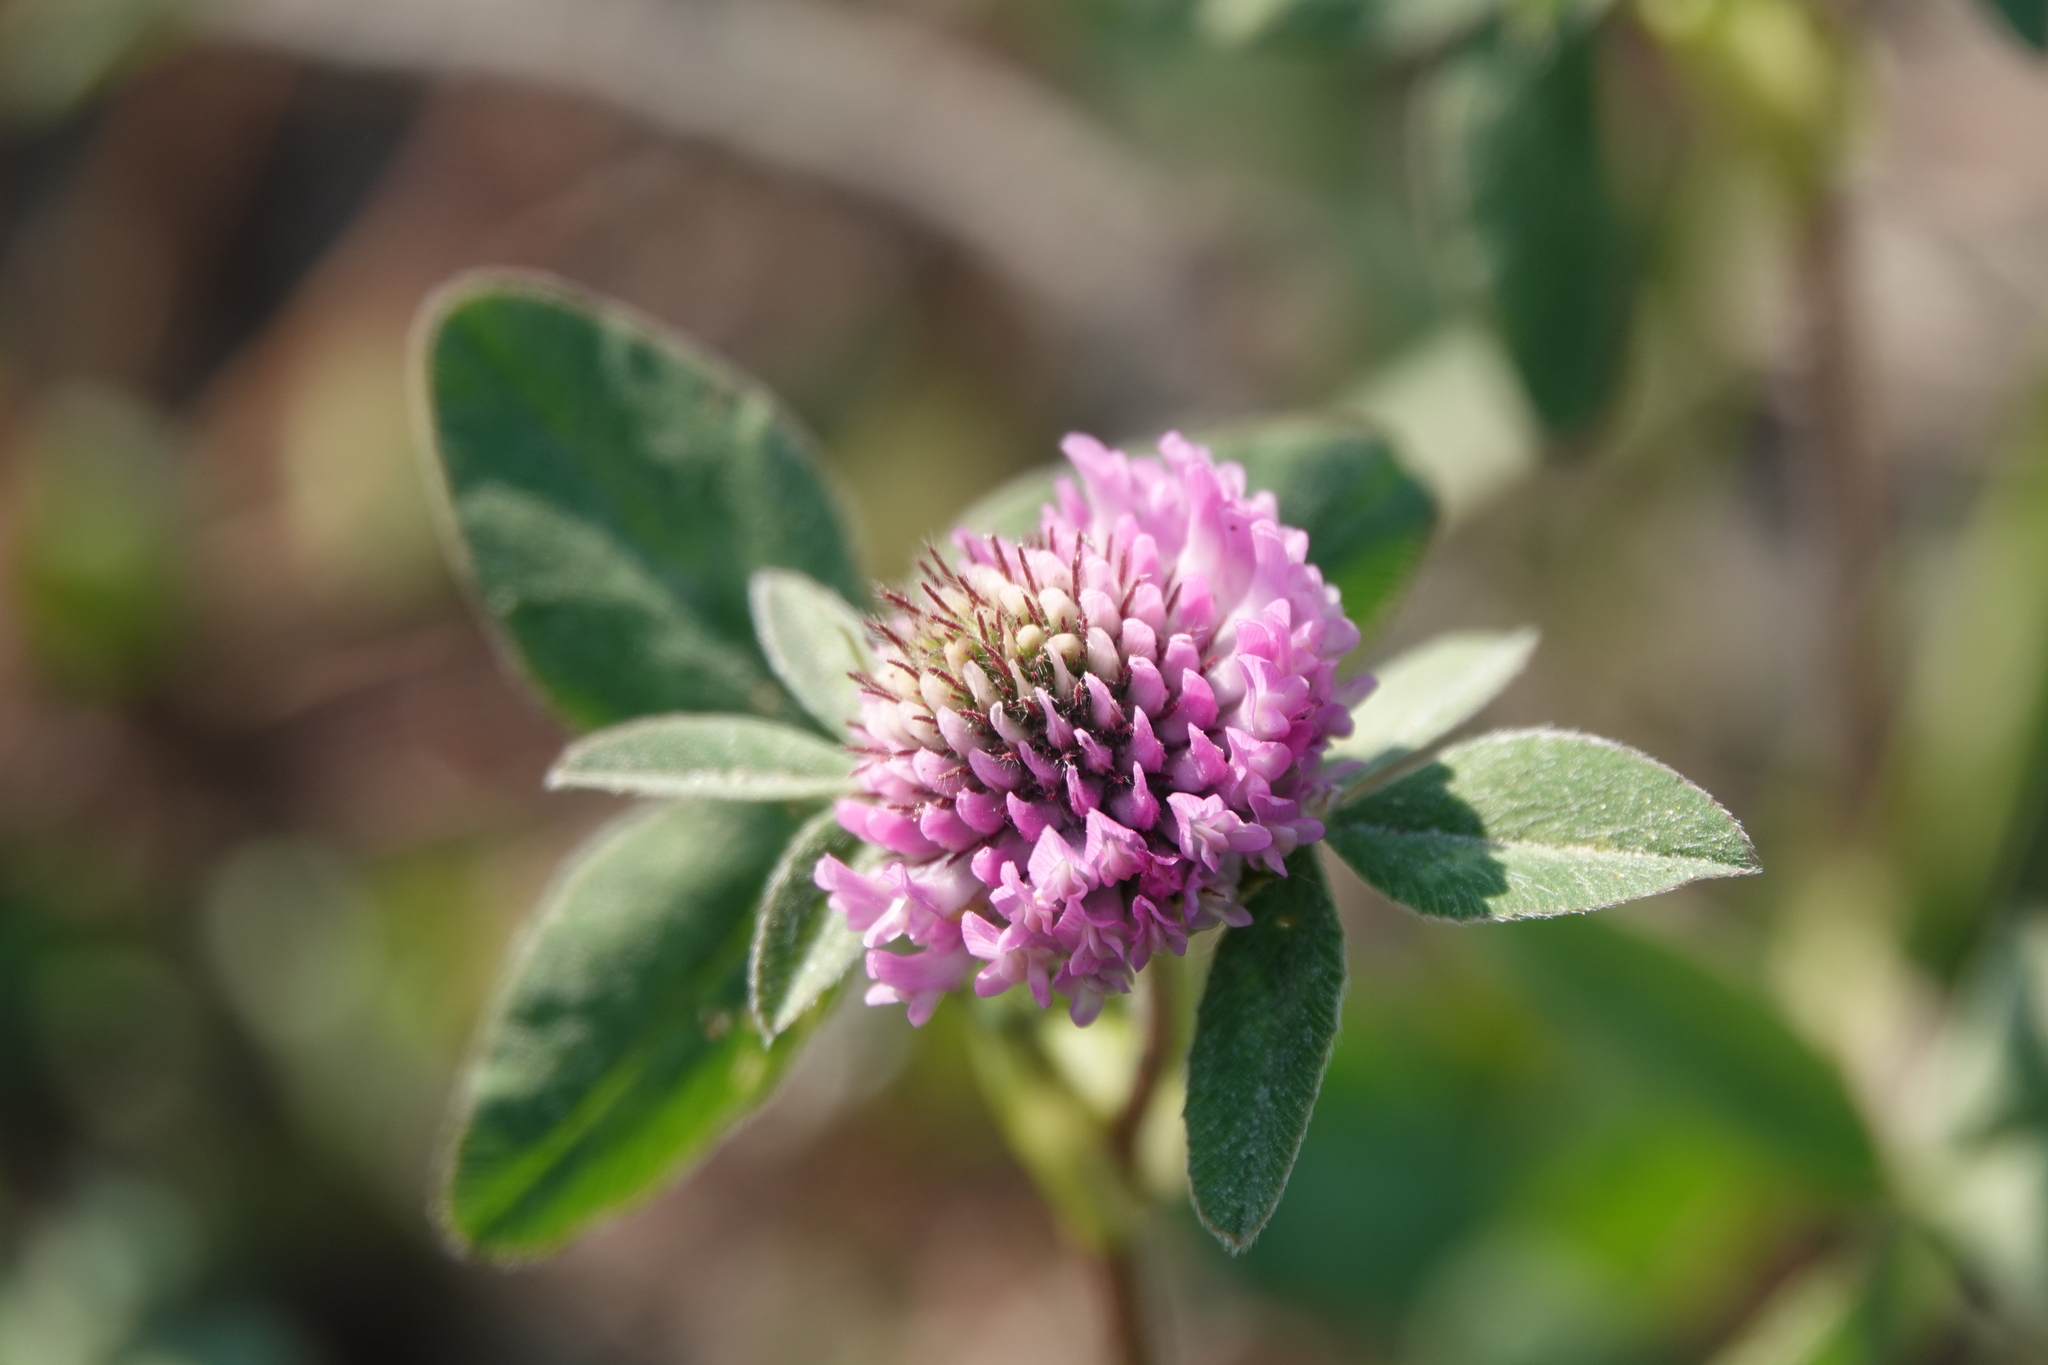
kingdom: Plantae
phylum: Tracheophyta
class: Magnoliopsida
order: Fabales
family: Fabaceae
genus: Trifolium
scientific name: Trifolium pratense
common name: Red clover
